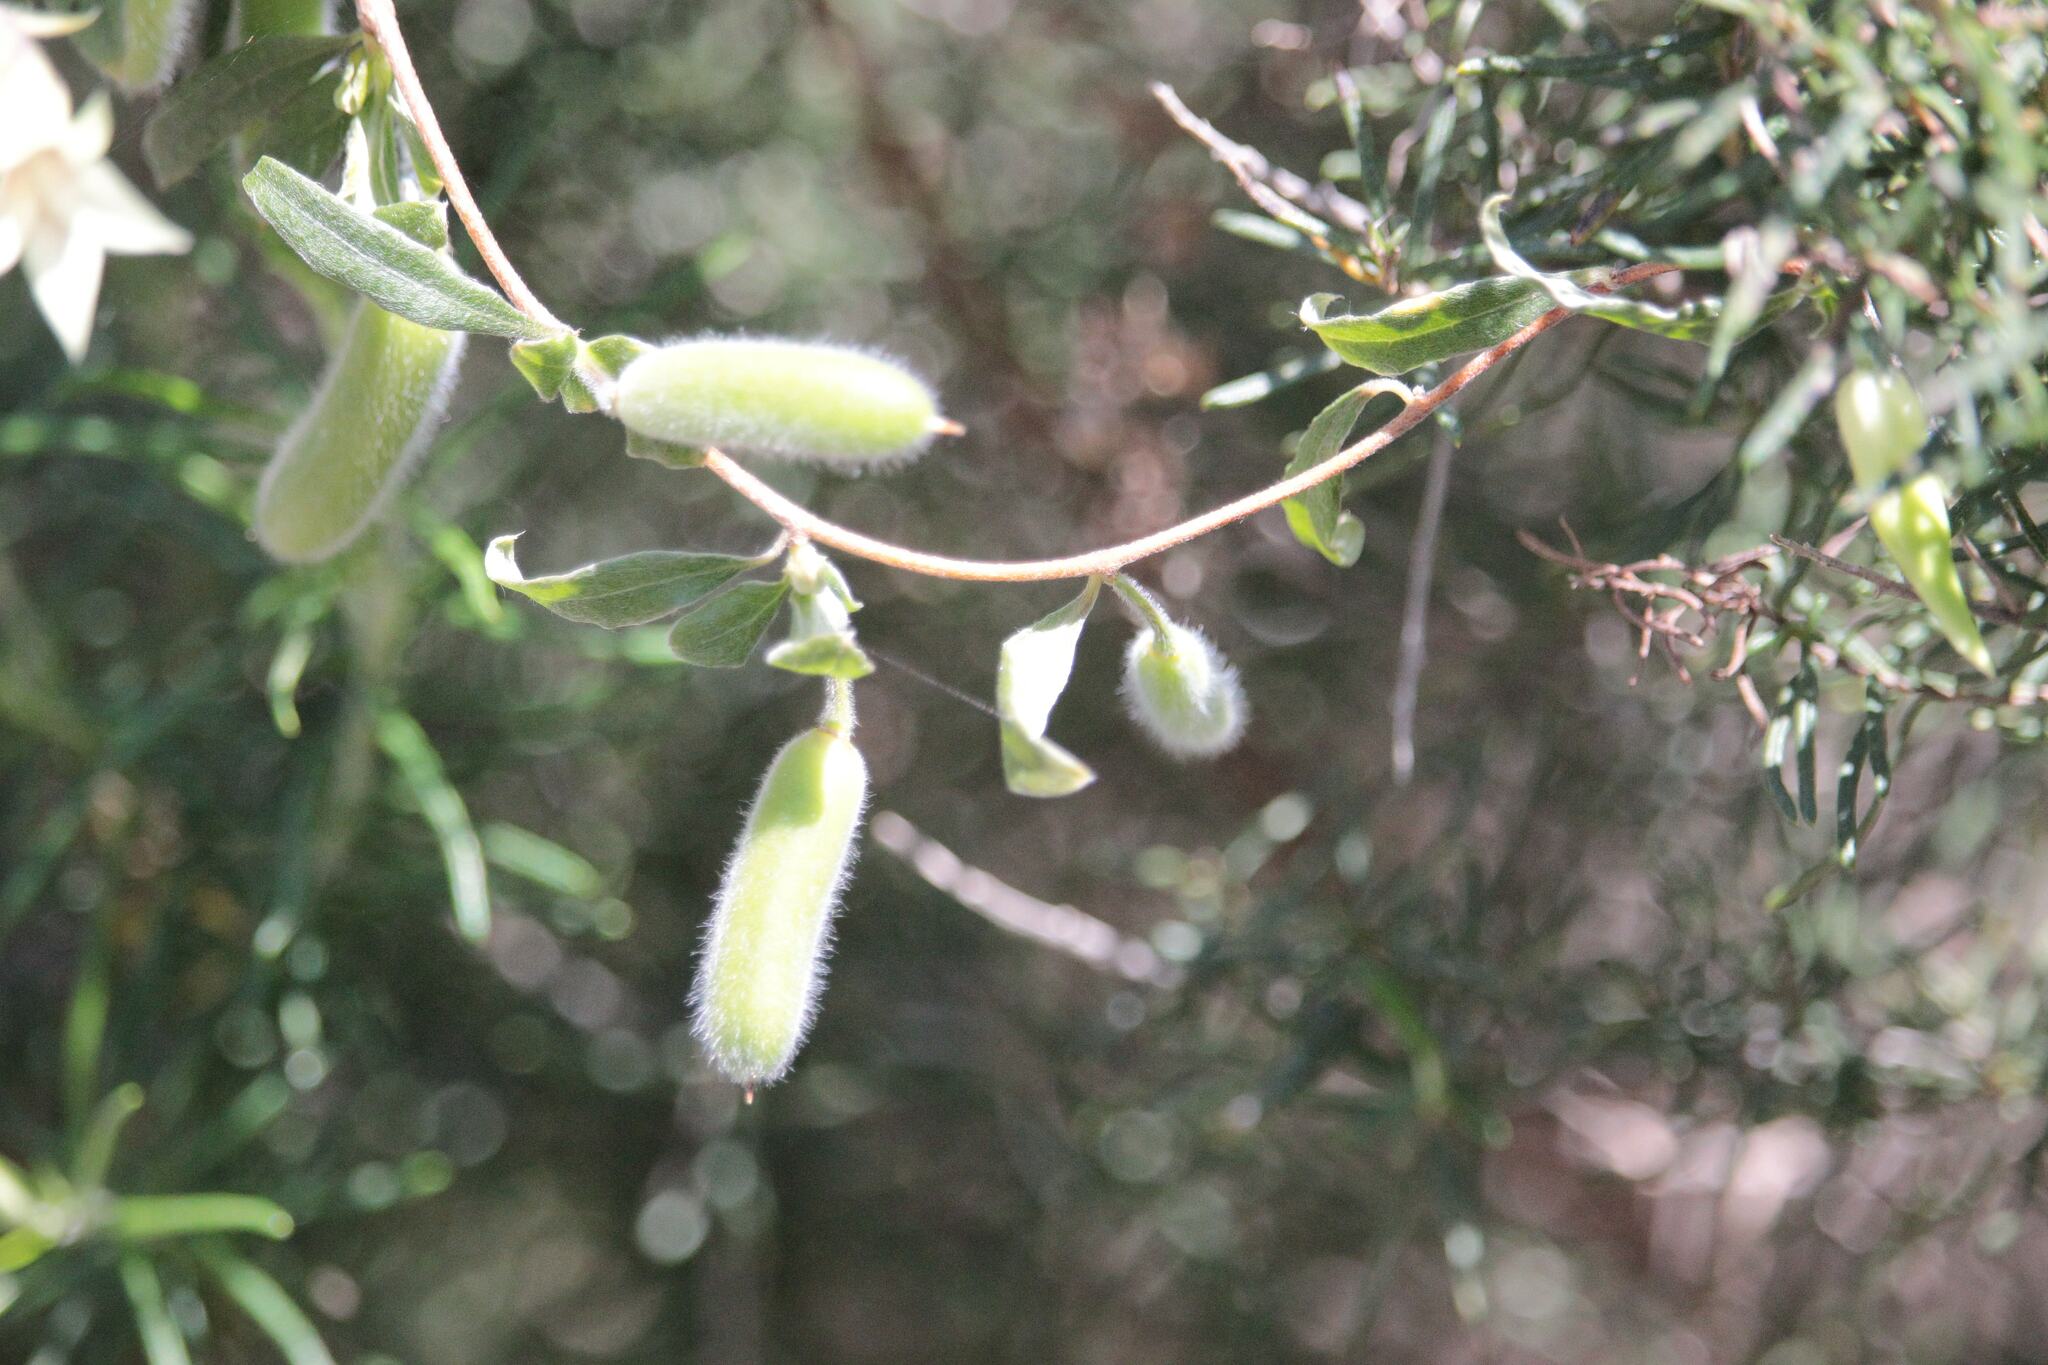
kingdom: Plantae
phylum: Tracheophyta
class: Magnoliopsida
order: Apiales
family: Pittosporaceae
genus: Billardiera
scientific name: Billardiera scandens
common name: Apple-berry
